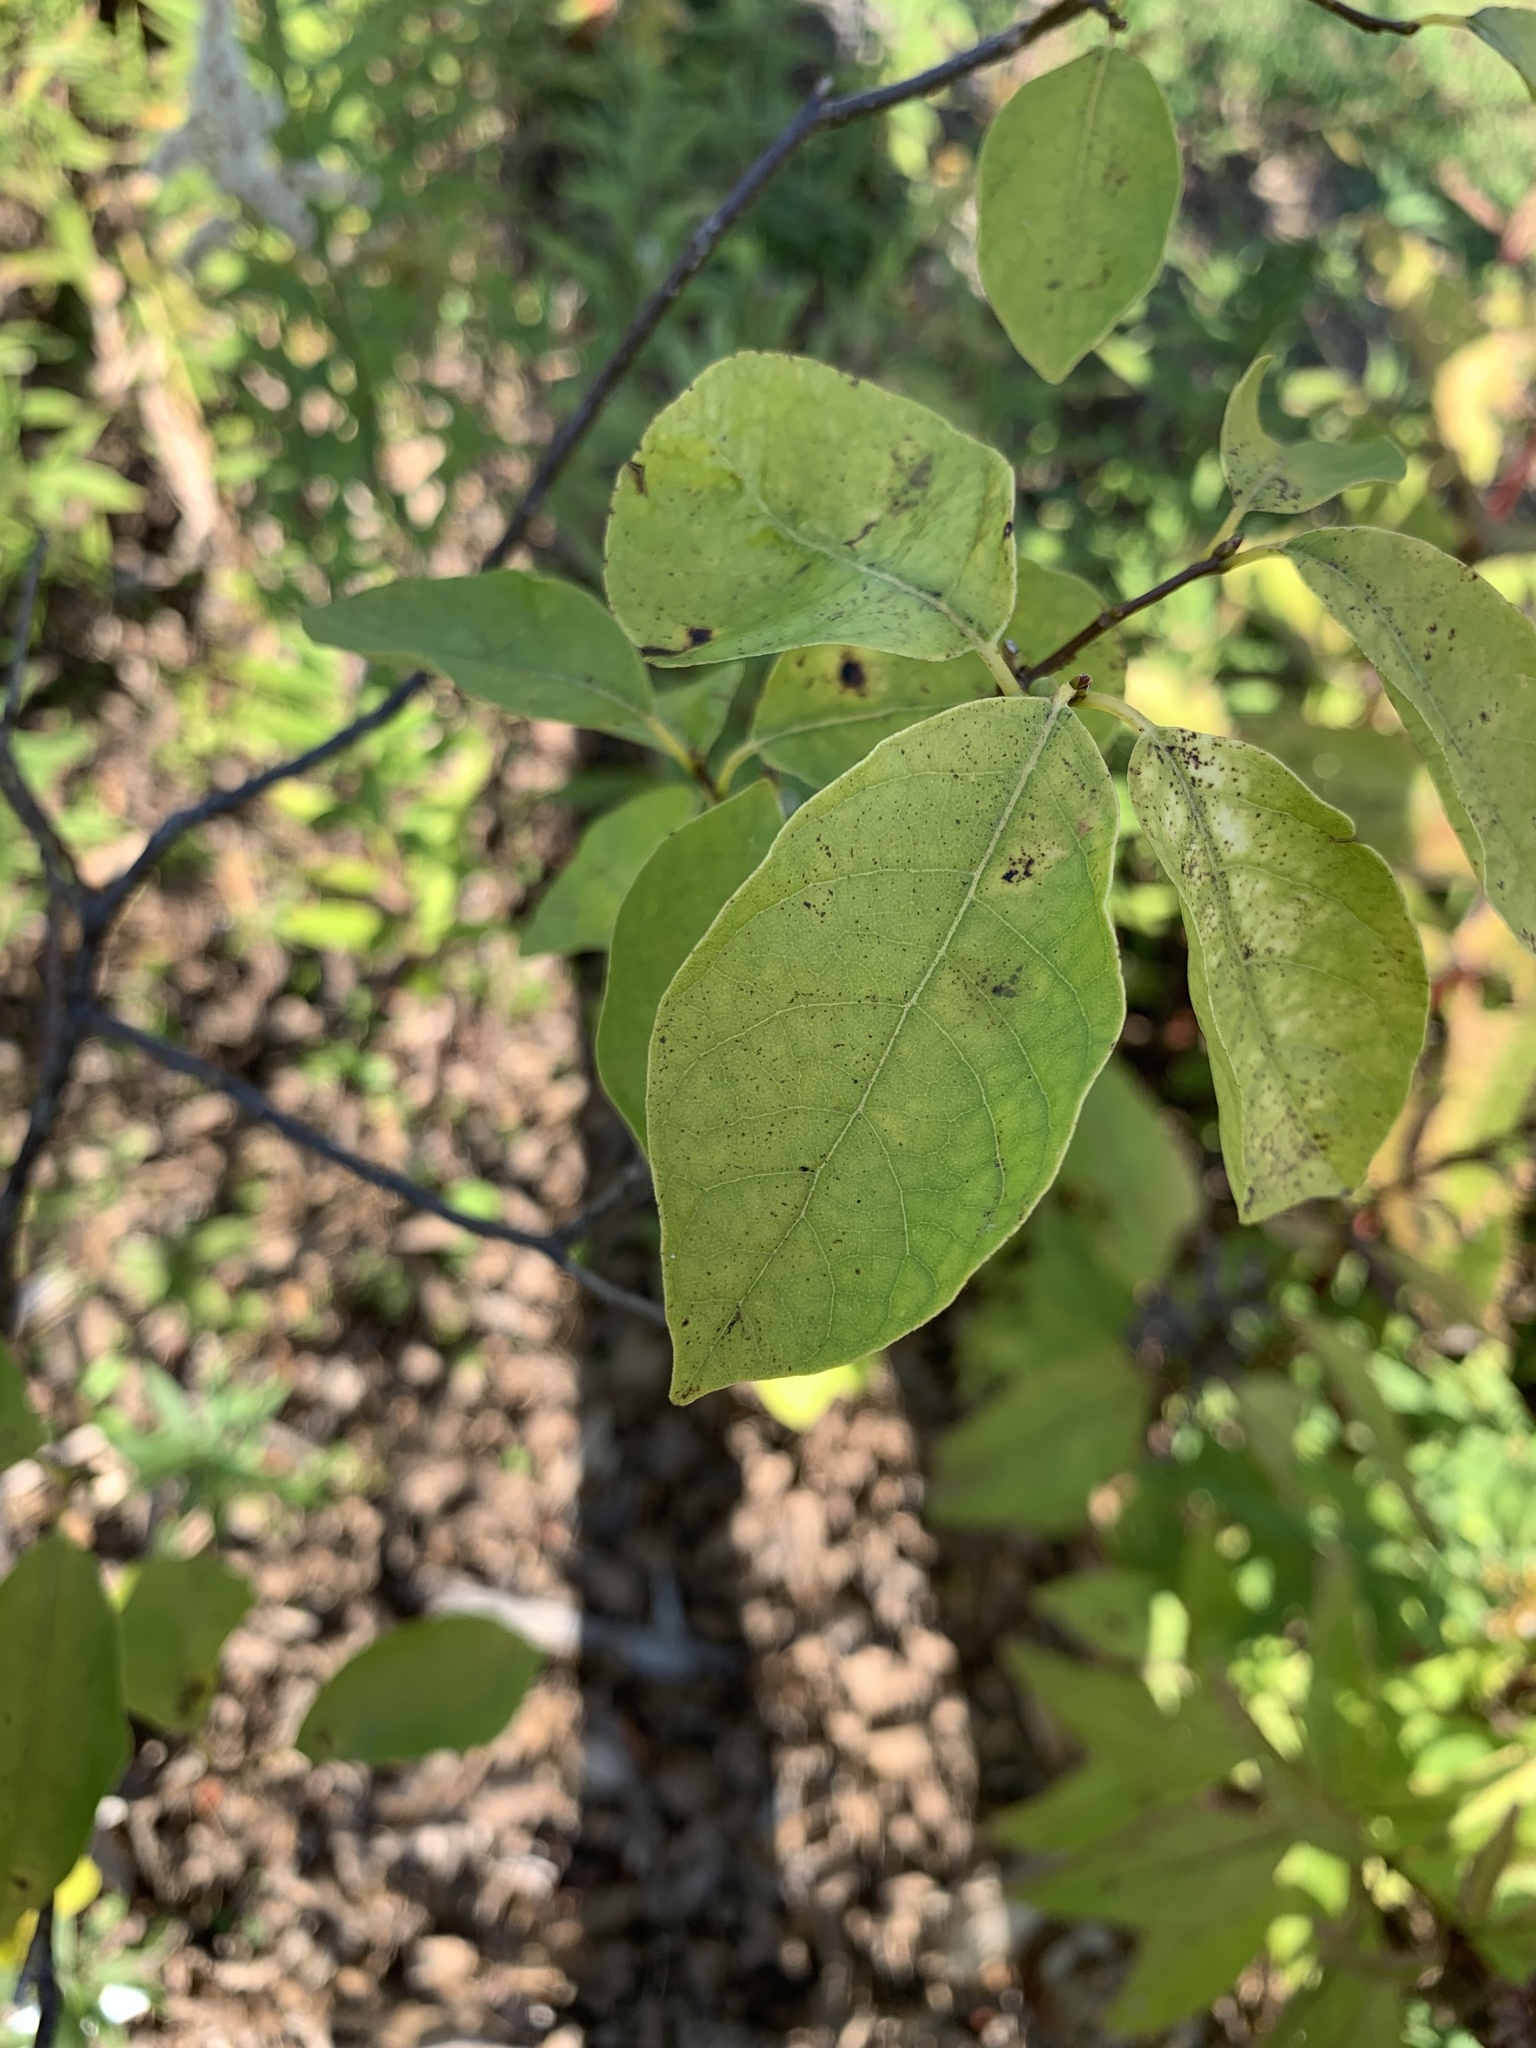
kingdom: Plantae
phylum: Tracheophyta
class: Magnoliopsida
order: Laurales
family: Lauraceae
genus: Lindera
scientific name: Lindera benzoin
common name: Spicebush
